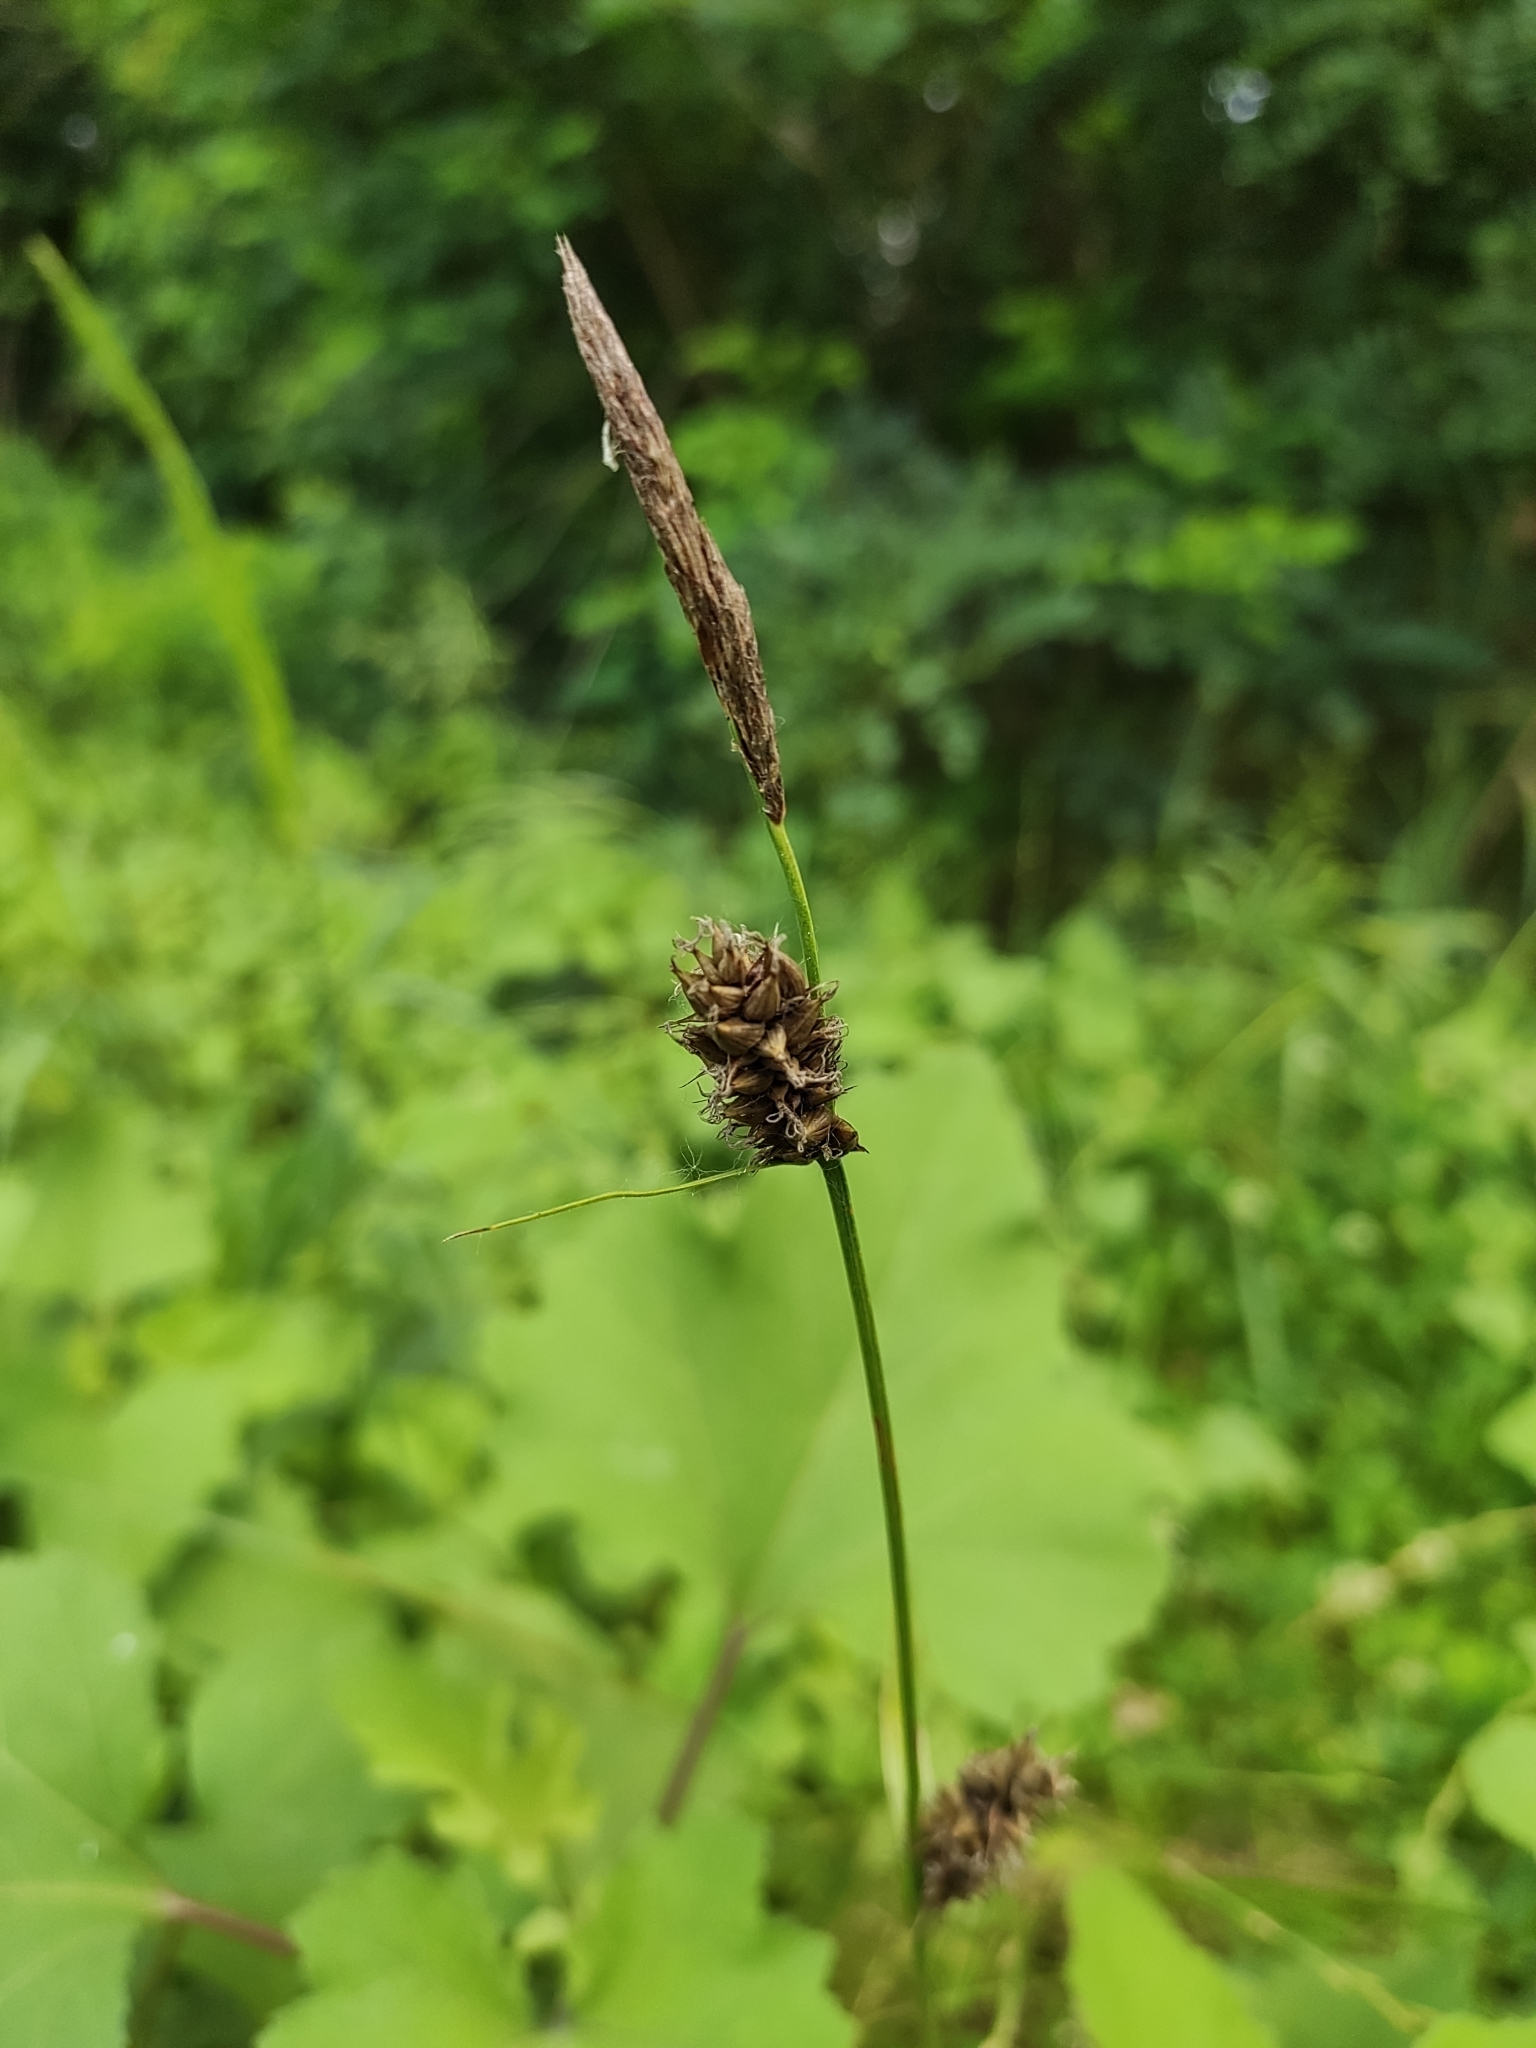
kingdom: Plantae
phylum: Tracheophyta
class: Liliopsida
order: Poales
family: Cyperaceae
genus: Carex
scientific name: Carex melanostachya
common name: Black-spiked sedge
